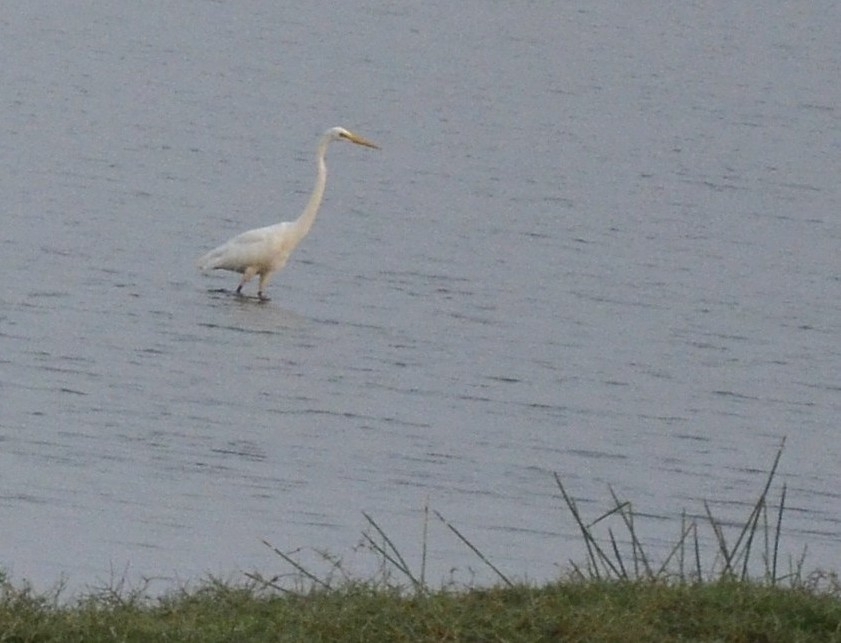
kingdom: Animalia
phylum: Chordata
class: Aves
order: Pelecaniformes
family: Ardeidae
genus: Ardea
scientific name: Ardea alba
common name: Great egret
